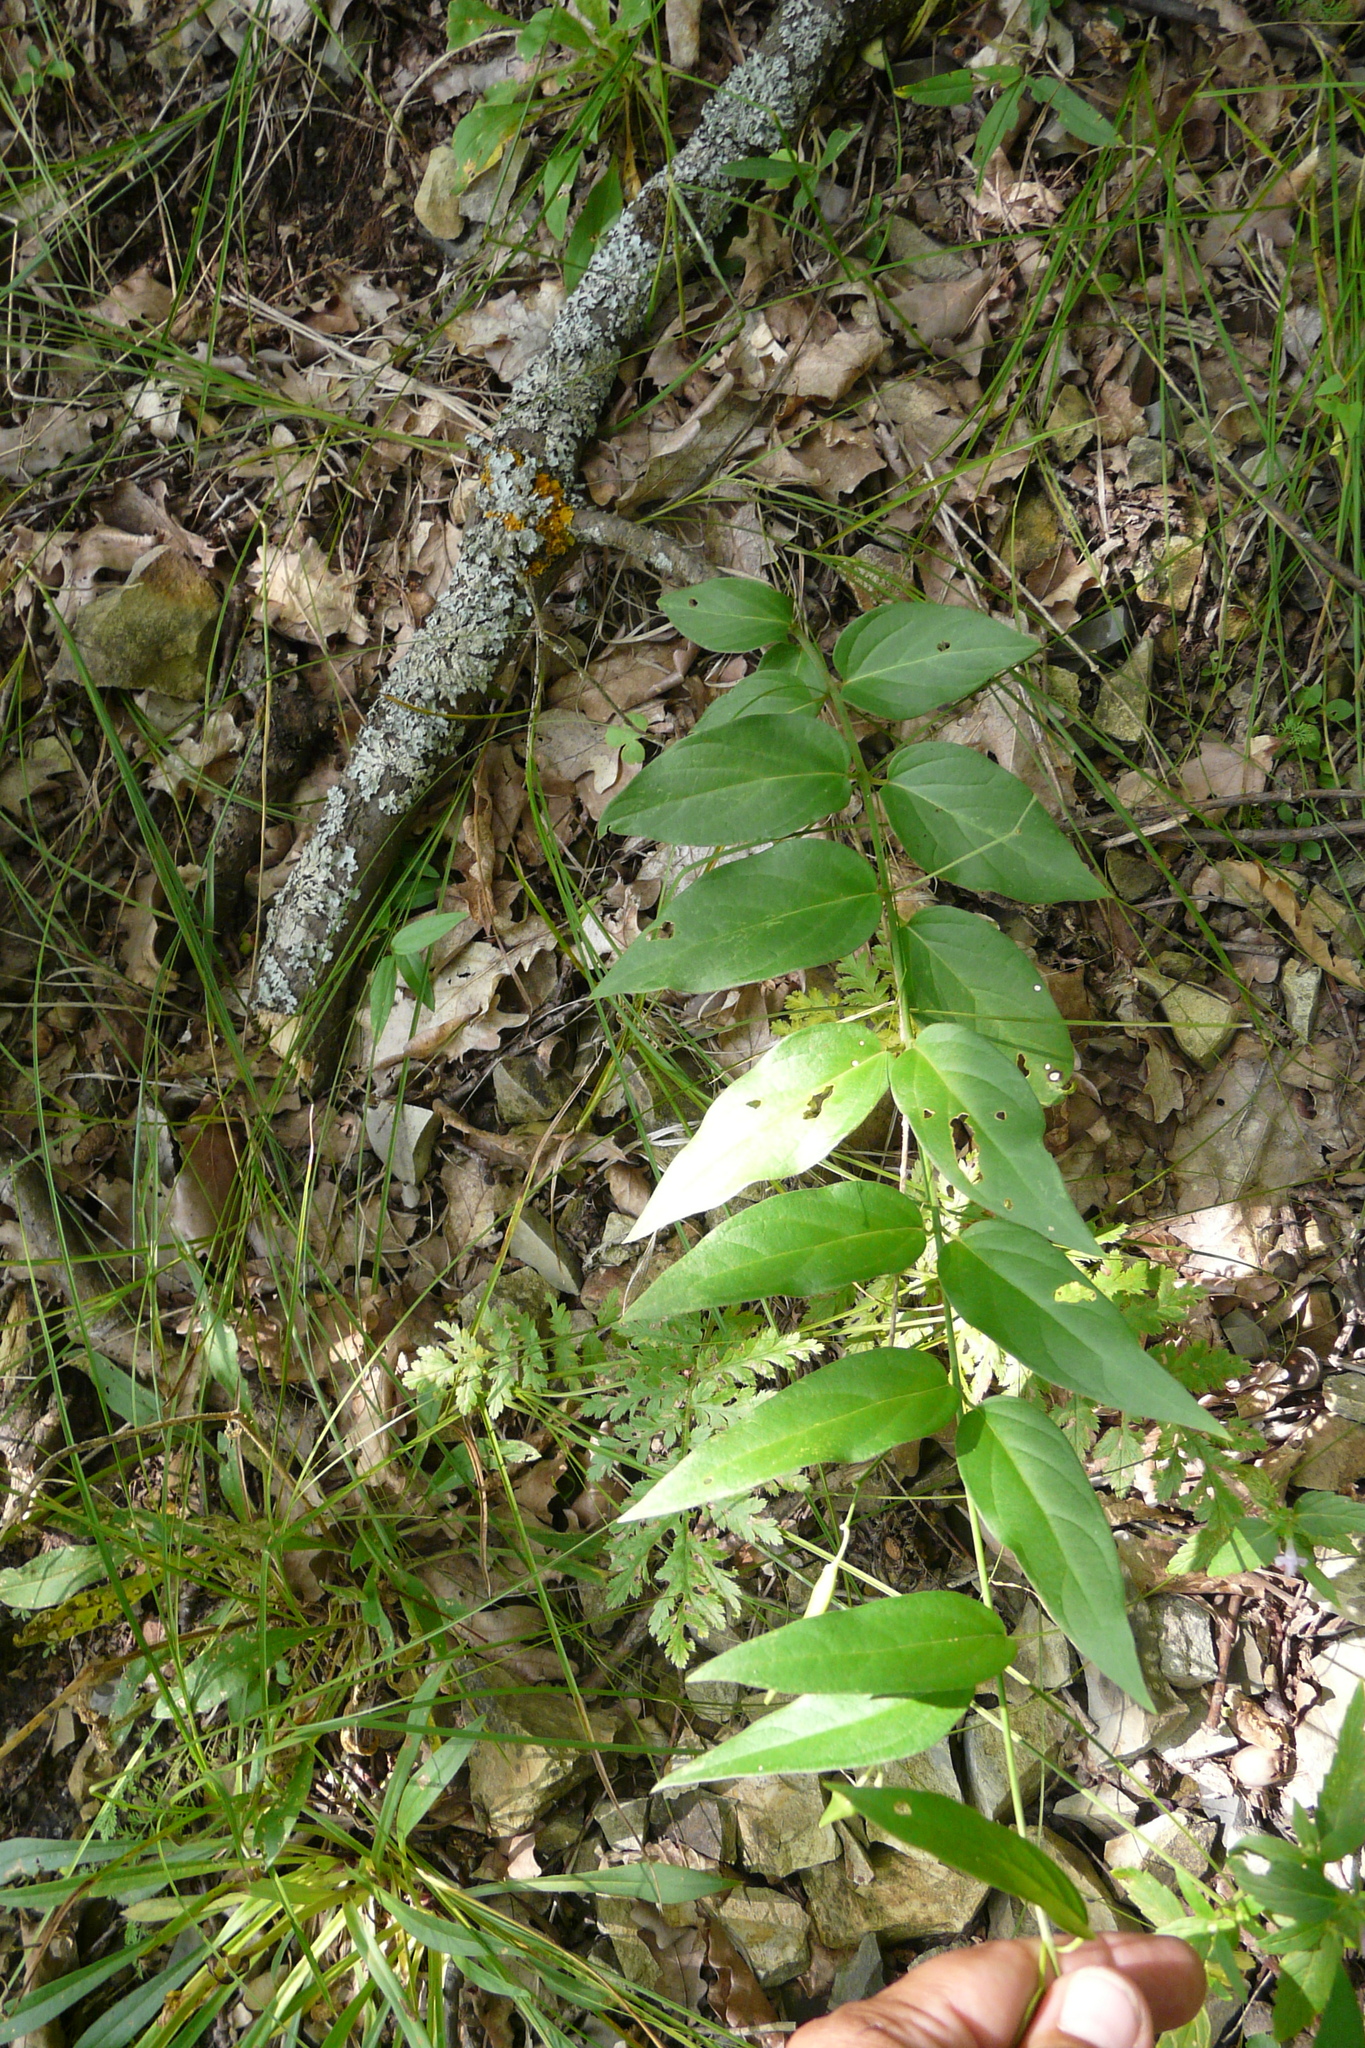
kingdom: Plantae
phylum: Tracheophyta
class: Magnoliopsida
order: Gentianales
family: Apocynaceae
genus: Vincetoxicum
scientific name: Vincetoxicum hirundinaria
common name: White swallowwort
